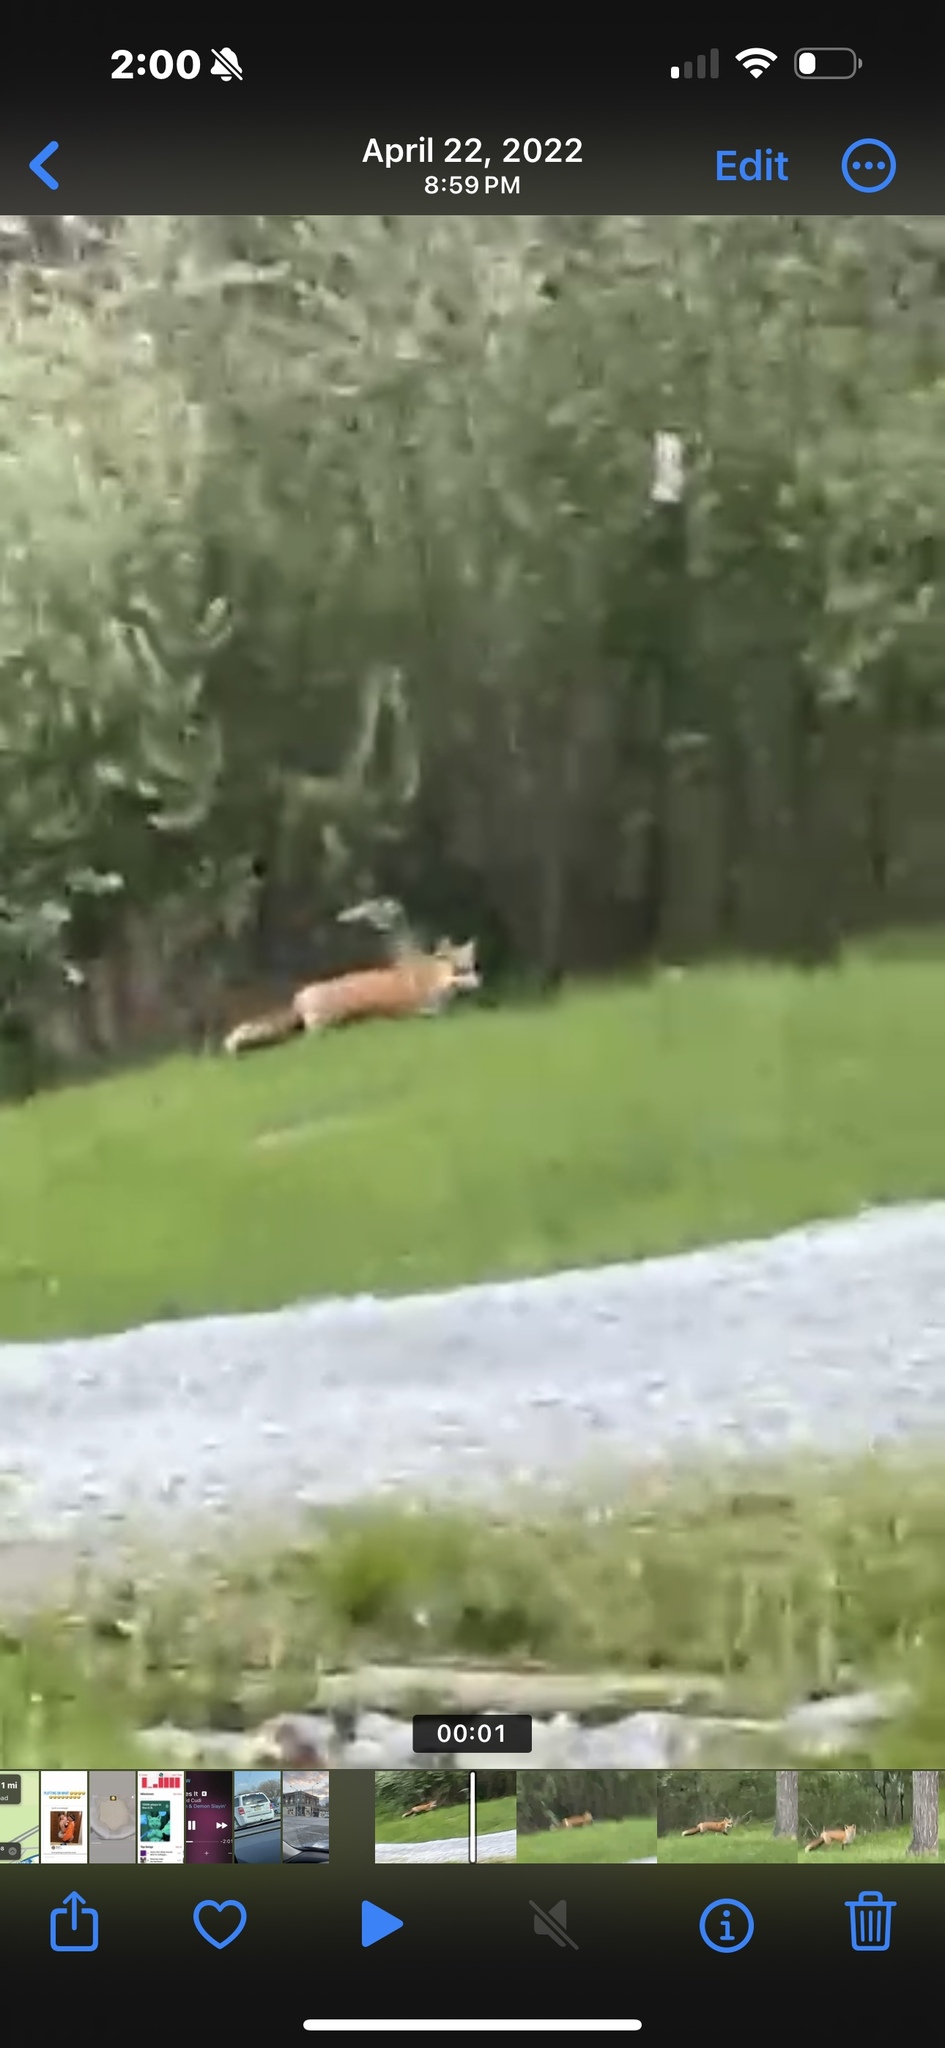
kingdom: Animalia
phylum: Chordata
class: Mammalia
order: Carnivora
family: Canidae
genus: Vulpes
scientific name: Vulpes vulpes
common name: Red fox
